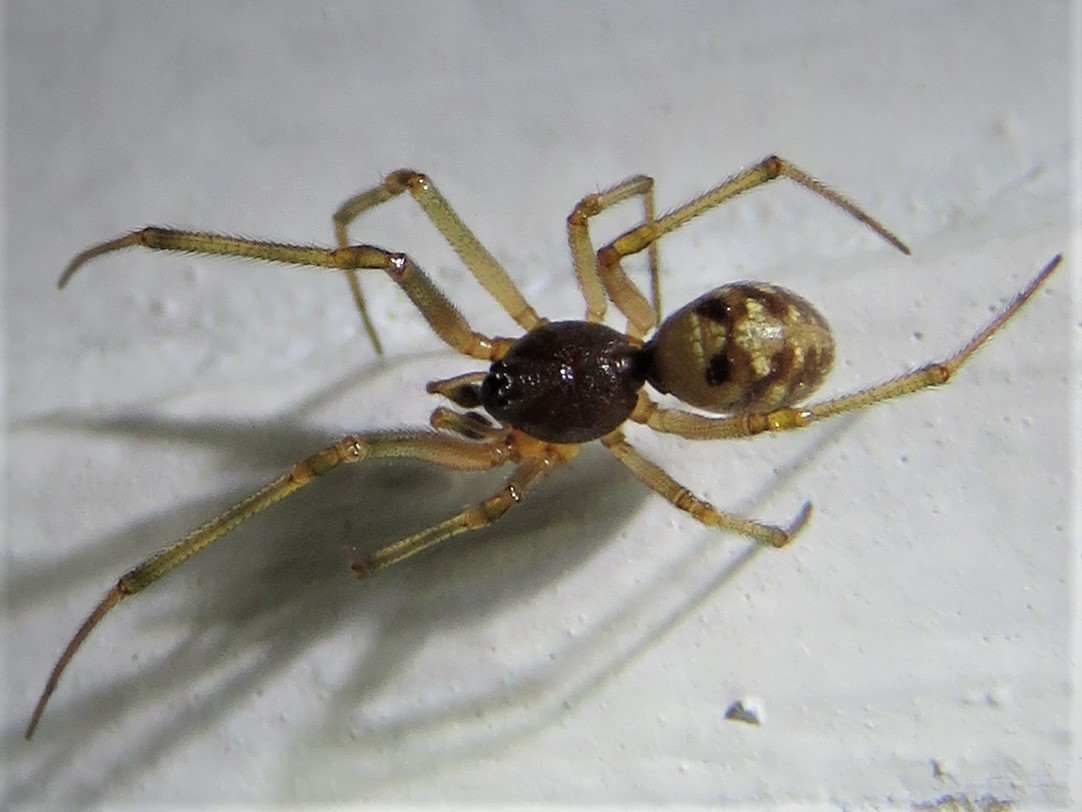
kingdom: Animalia
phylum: Arthropoda
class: Arachnida
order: Araneae
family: Theridiidae
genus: Steatoda
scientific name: Steatoda triangulosa
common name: Triangulate bud spider
